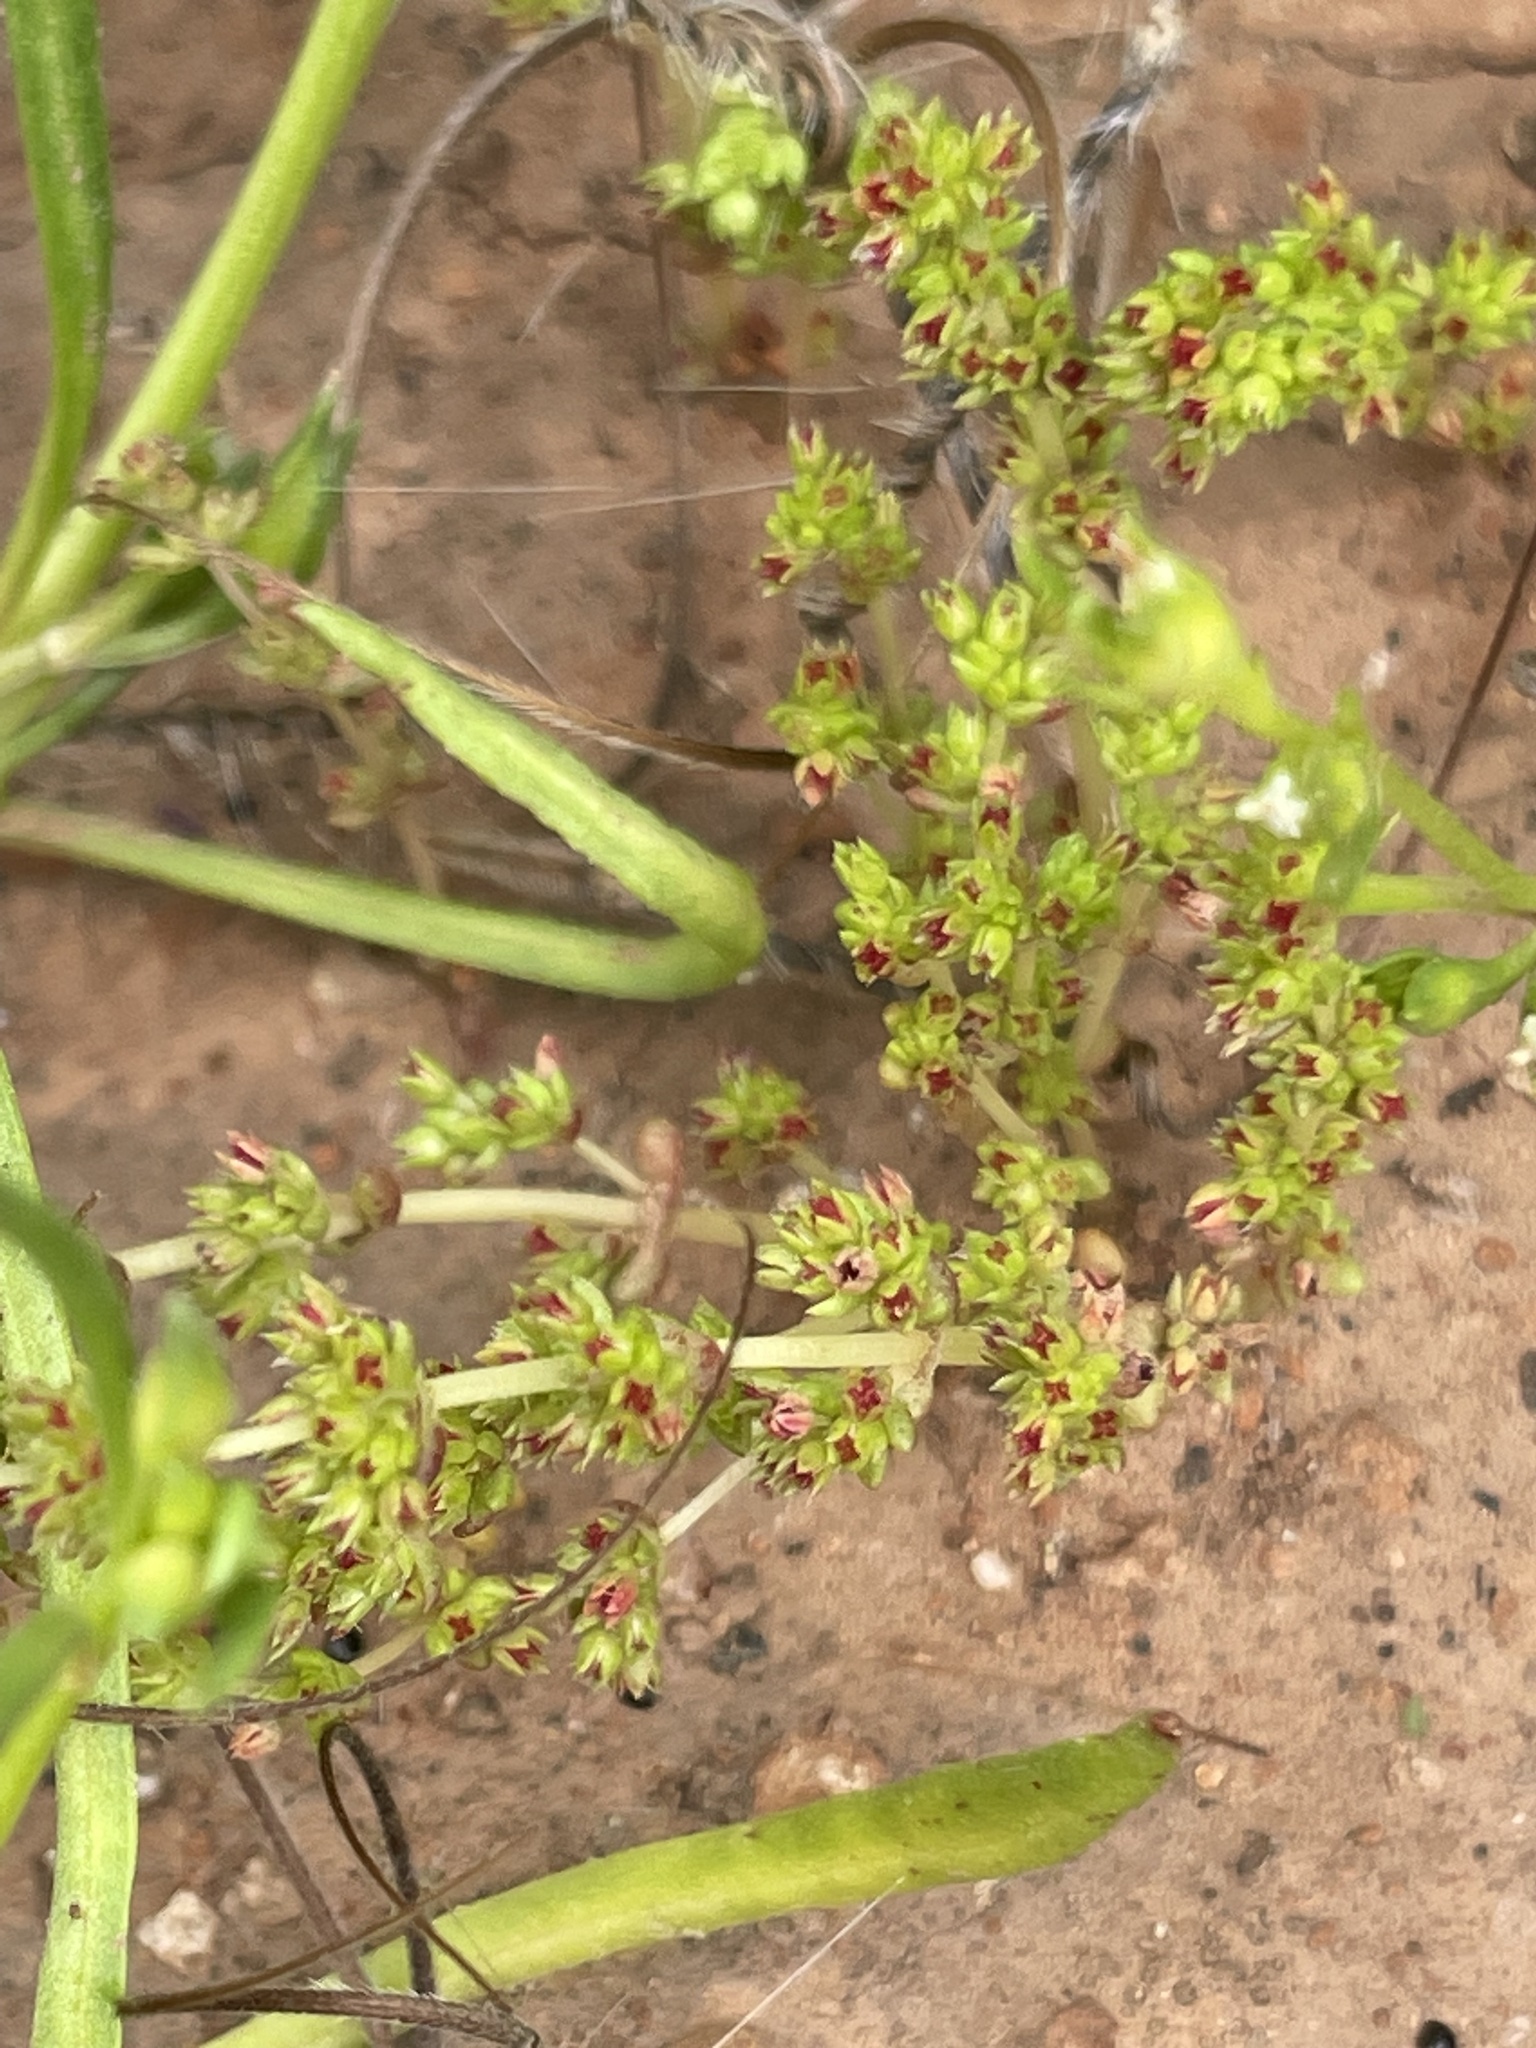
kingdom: Plantae
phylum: Tracheophyta
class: Magnoliopsida
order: Saxifragales
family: Crassulaceae
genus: Crassula
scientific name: Crassula connata
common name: Erect pygmyweed
